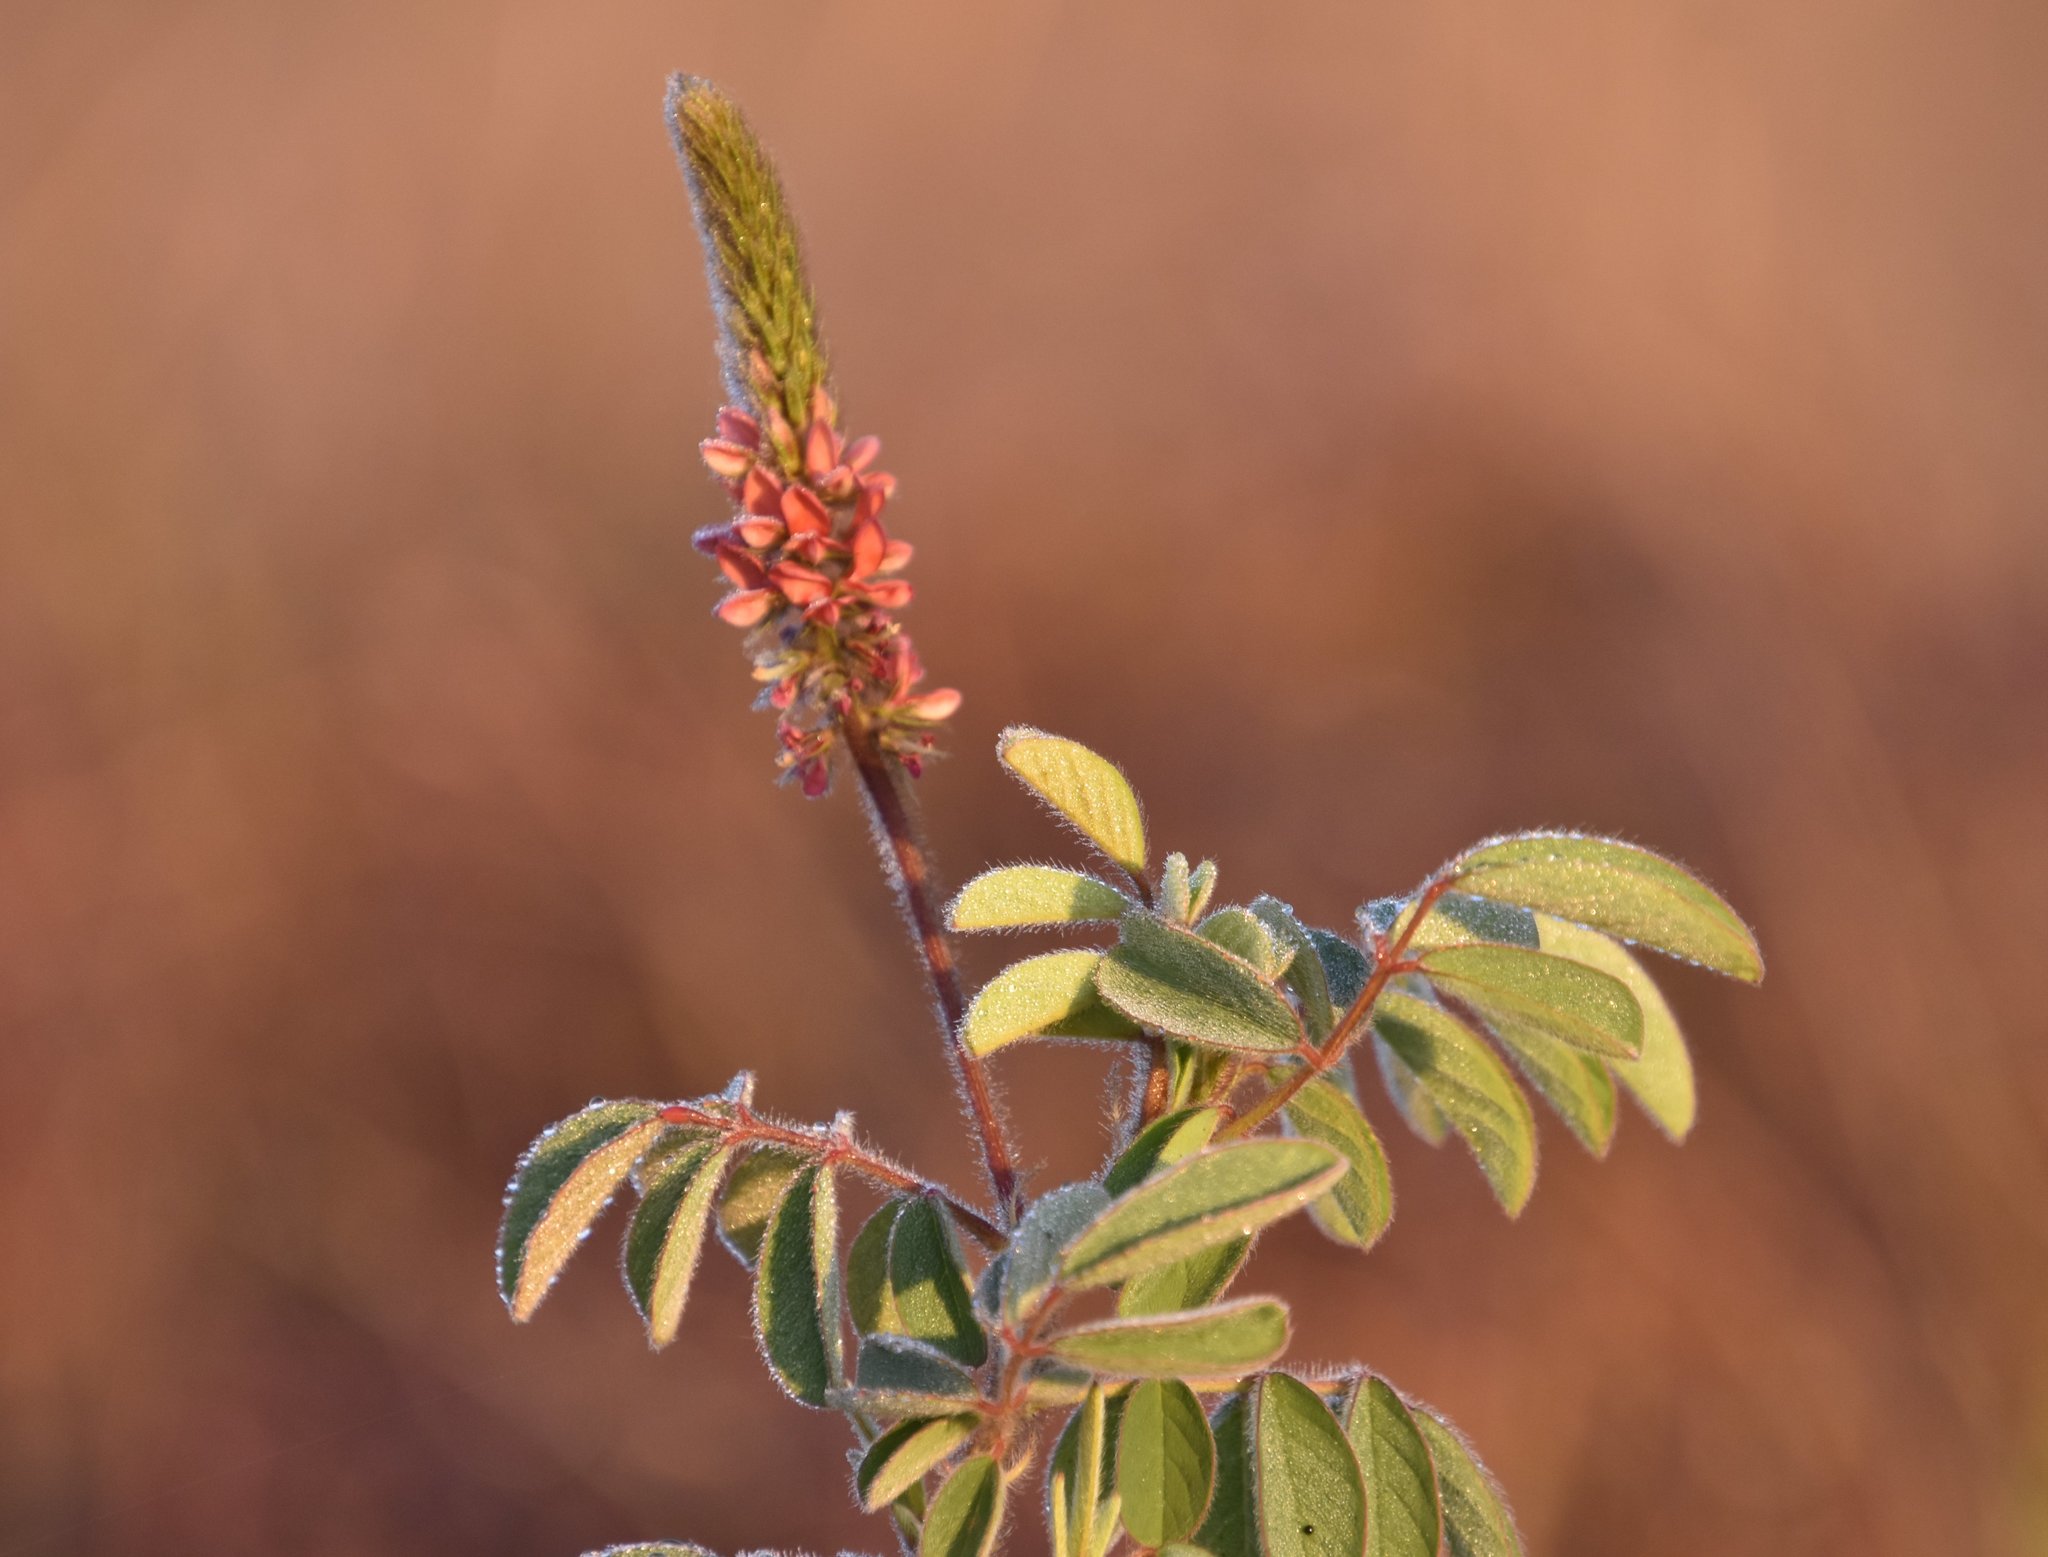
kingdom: Plantae
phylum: Tracheophyta
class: Magnoliopsida
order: Fabales
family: Fabaceae
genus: Indigofera
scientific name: Indigofera hirsuta
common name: Hairy indigo
